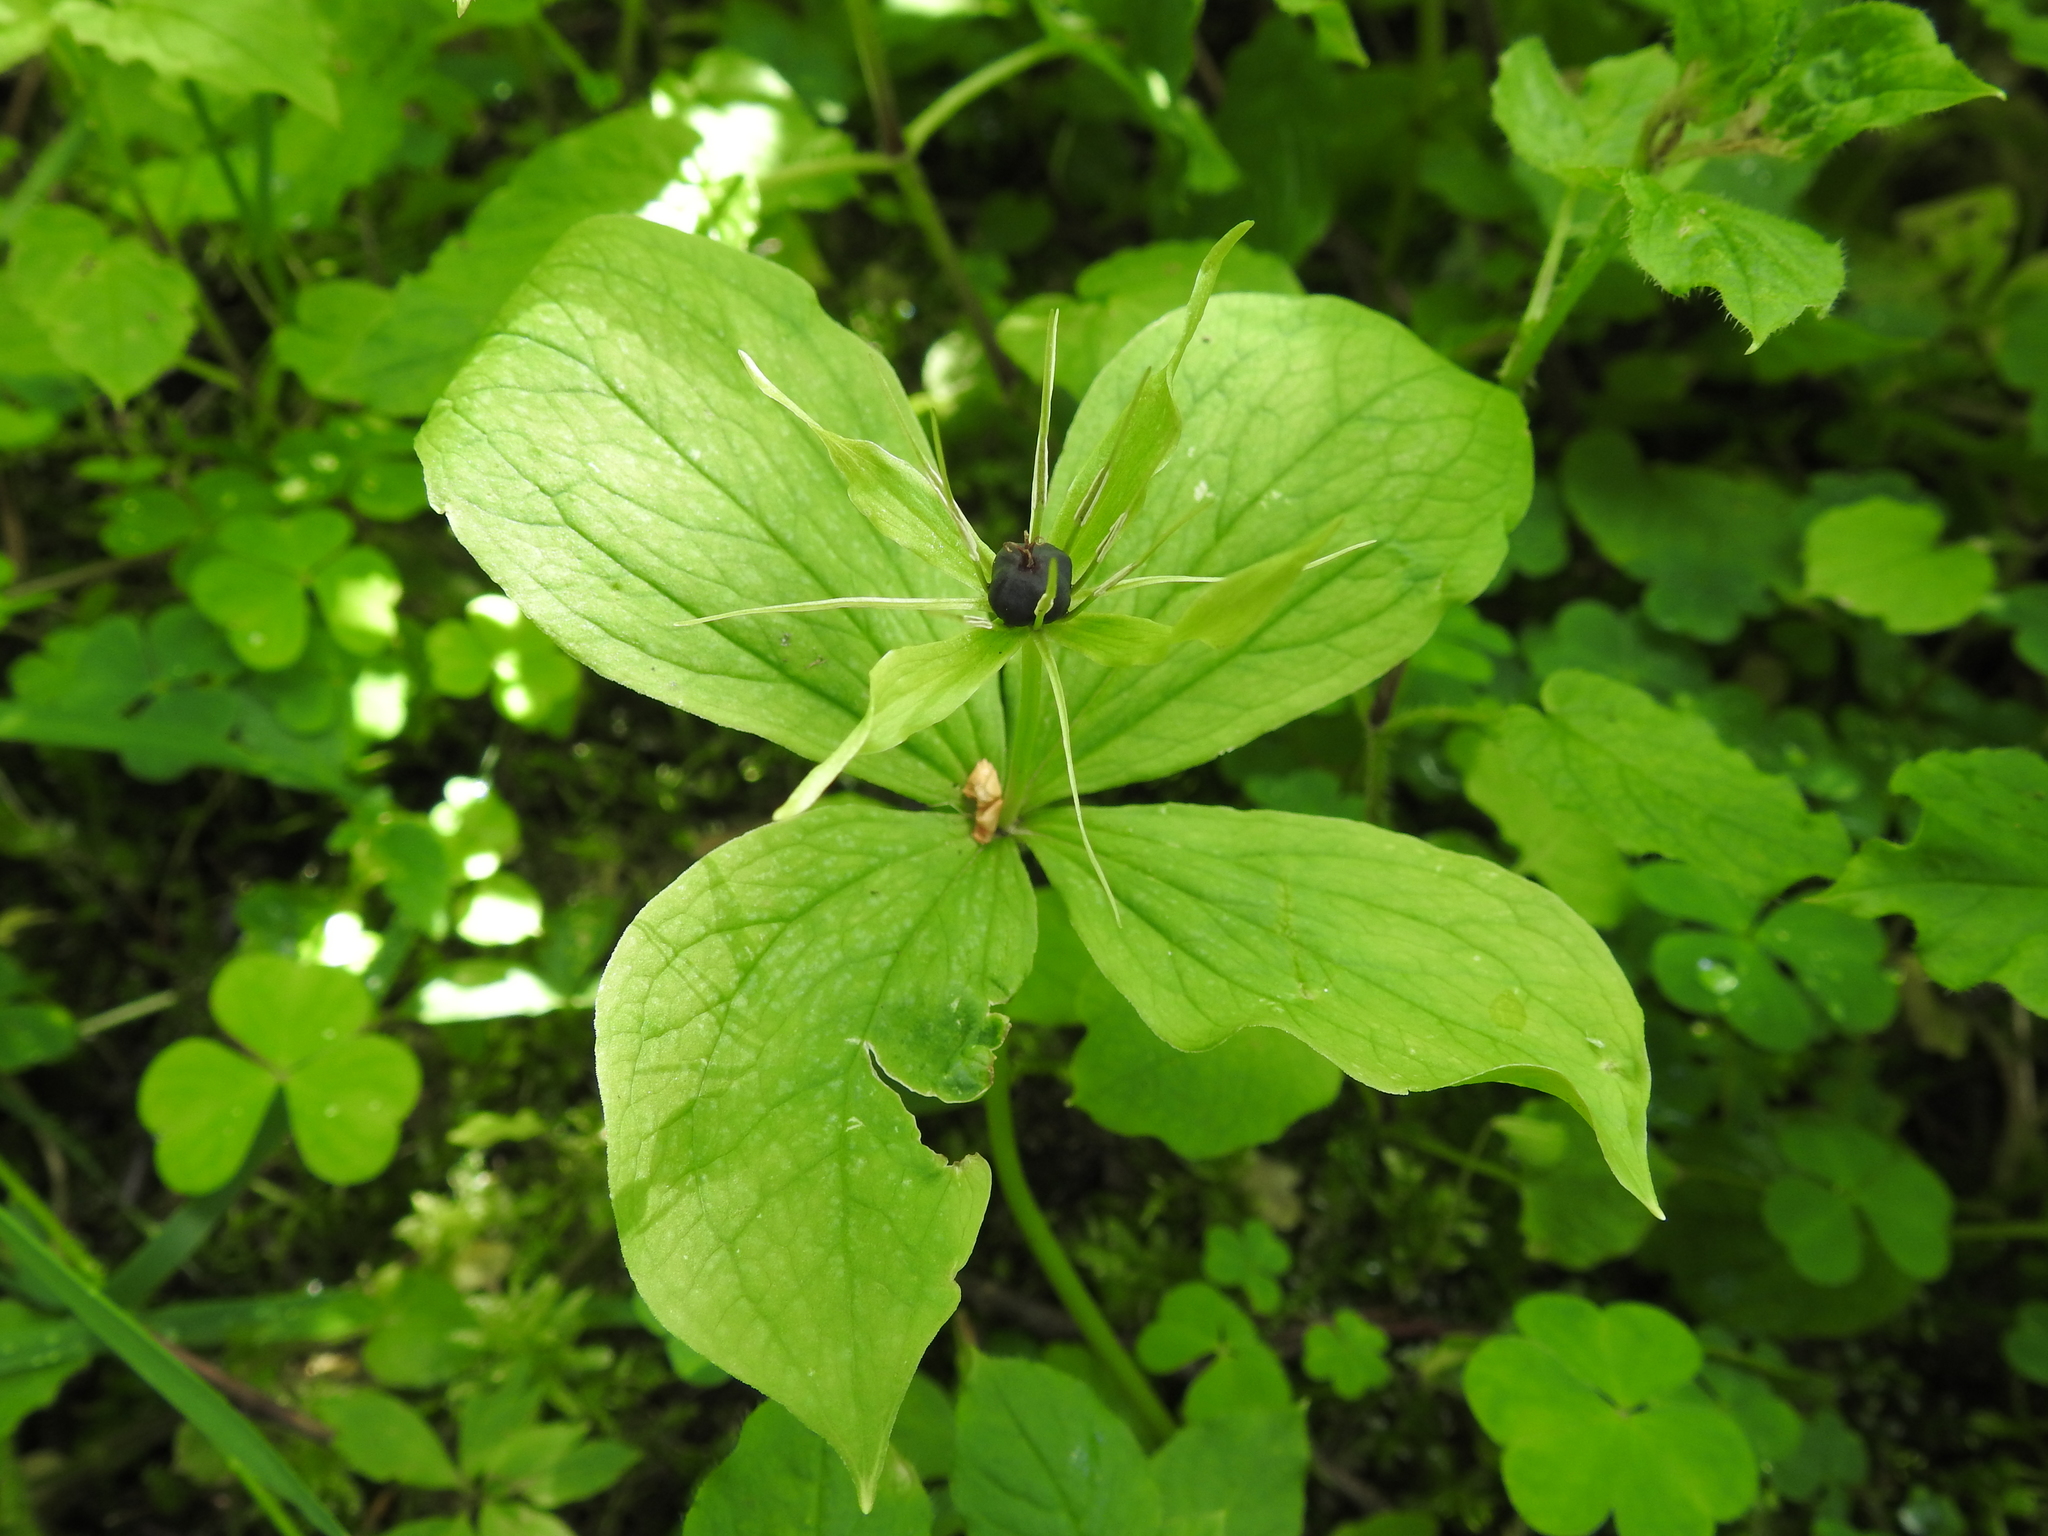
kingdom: Plantae
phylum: Tracheophyta
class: Liliopsida
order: Liliales
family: Melanthiaceae
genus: Paris
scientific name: Paris quadrifolia
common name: Herb-paris
